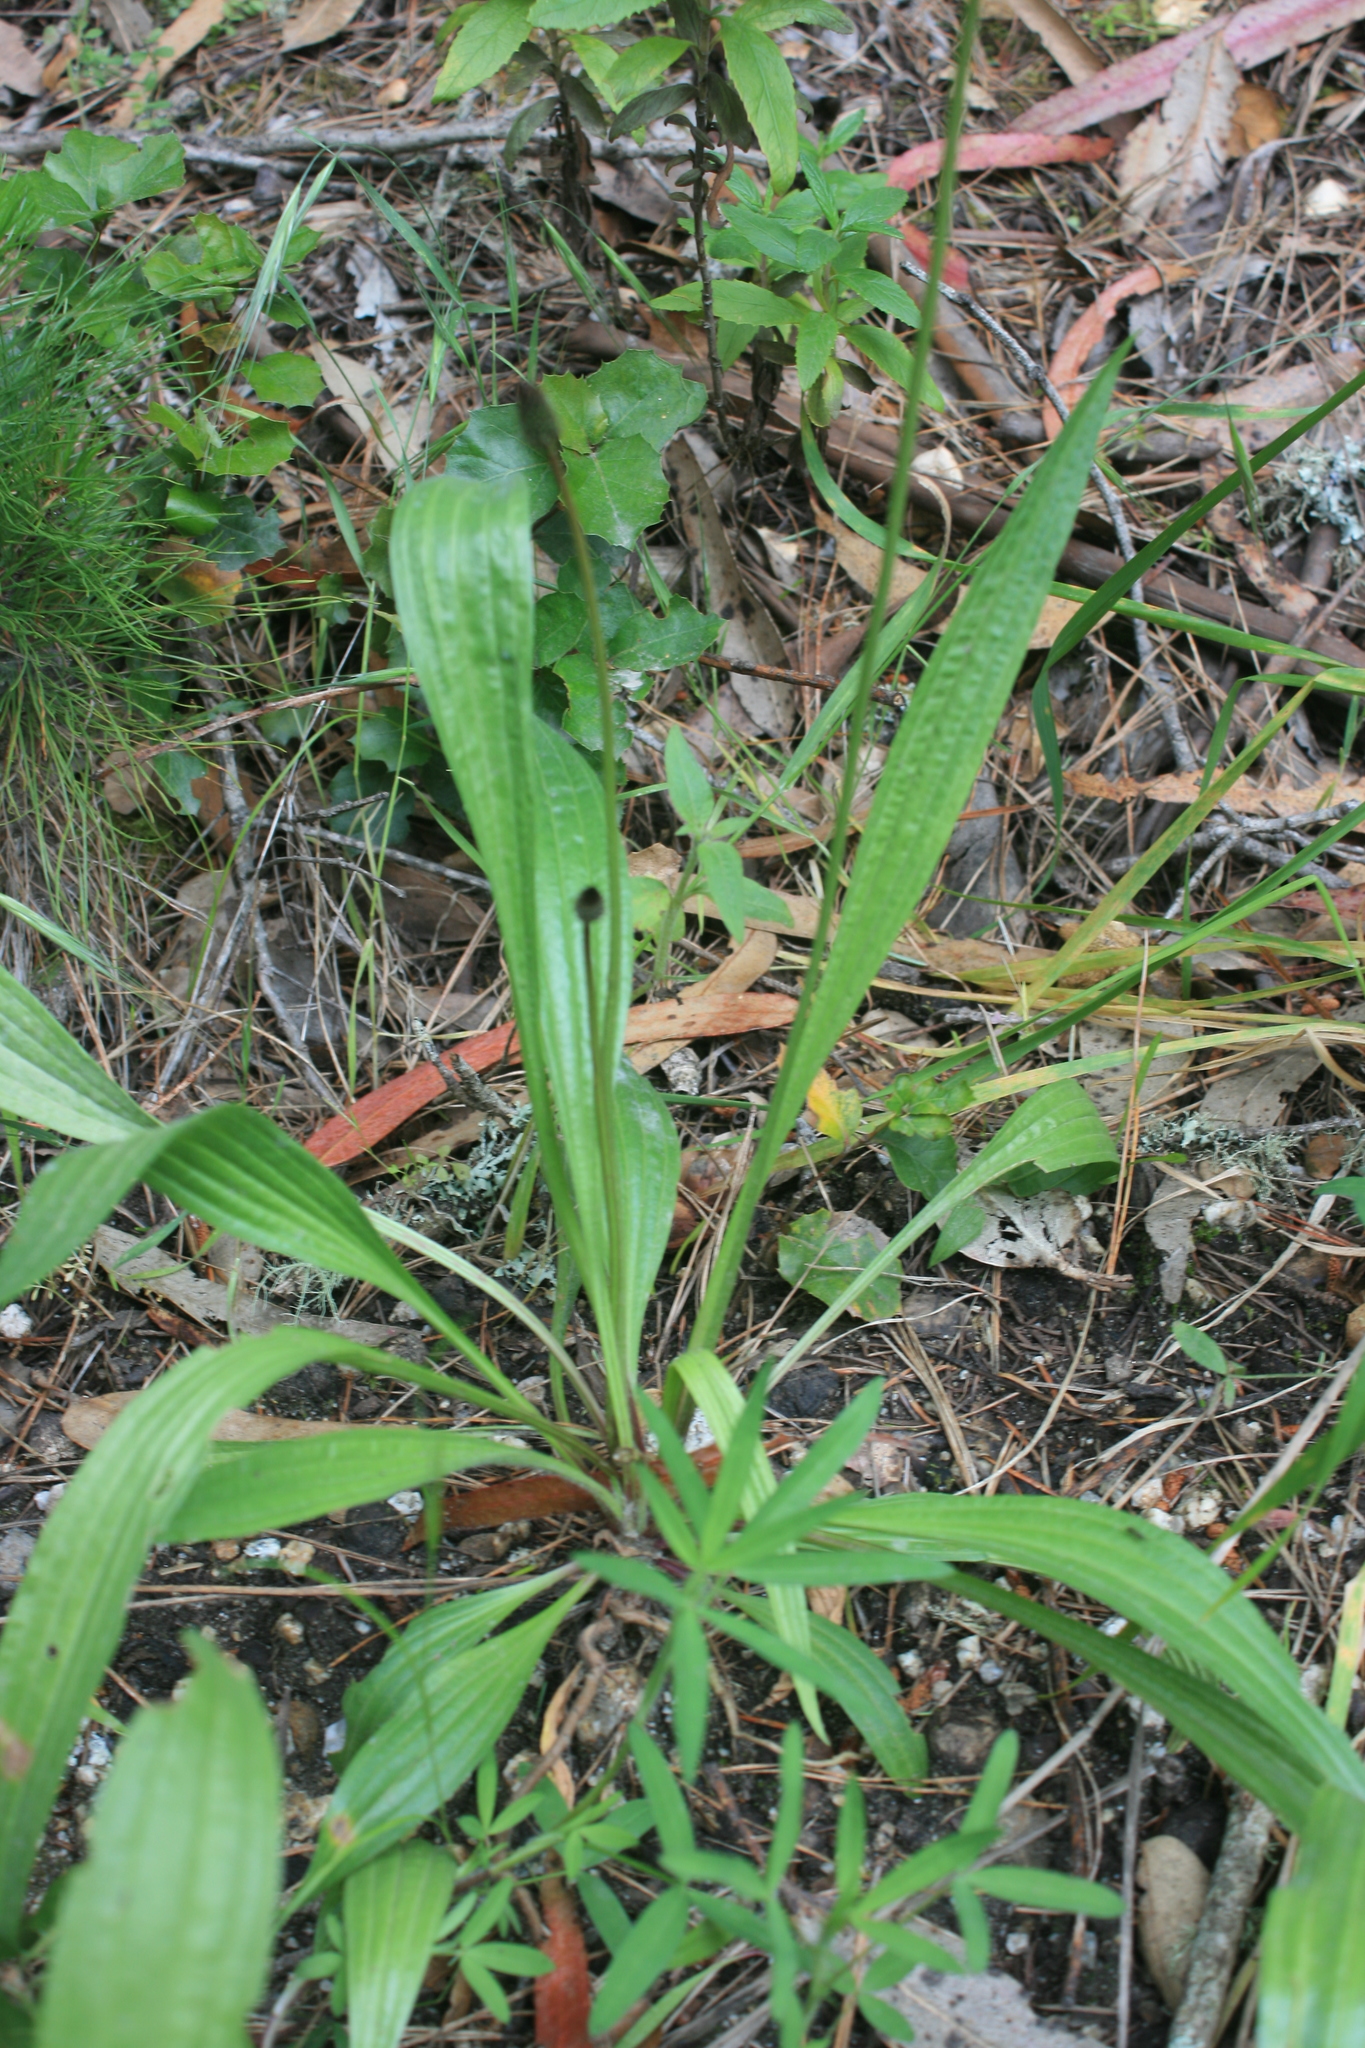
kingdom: Plantae
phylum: Tracheophyta
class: Magnoliopsida
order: Lamiales
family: Plantaginaceae
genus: Plantago
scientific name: Plantago lanceolata
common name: Ribwort plantain
